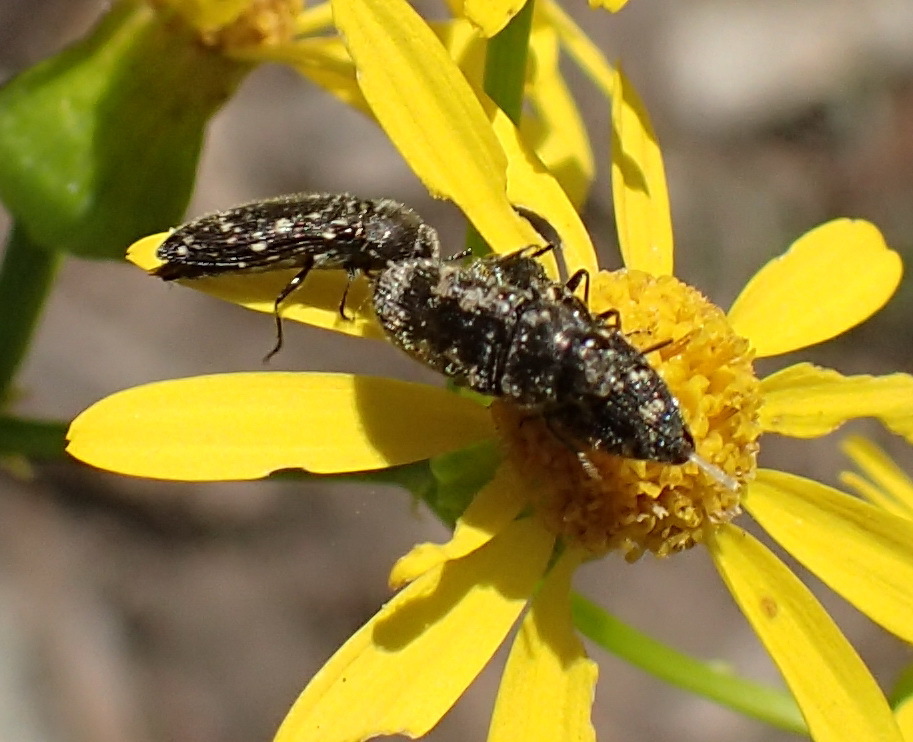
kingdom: Animalia
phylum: Arthropoda
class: Insecta
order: Coleoptera
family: Buprestidae
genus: Acmaeodera
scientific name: Acmaeodera tubulus
